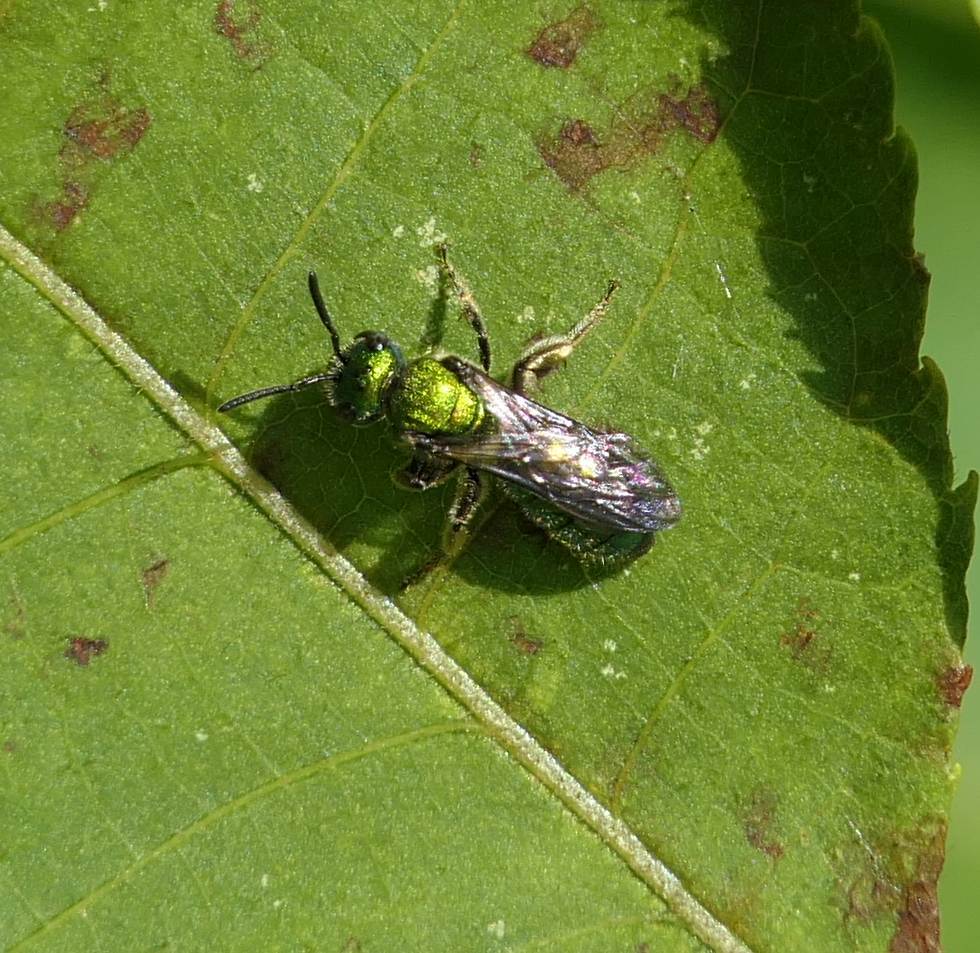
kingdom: Animalia
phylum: Arthropoda
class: Insecta
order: Hymenoptera
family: Halictidae
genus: Augochlora
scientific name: Augochlora pura
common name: Pure green sweat bee
